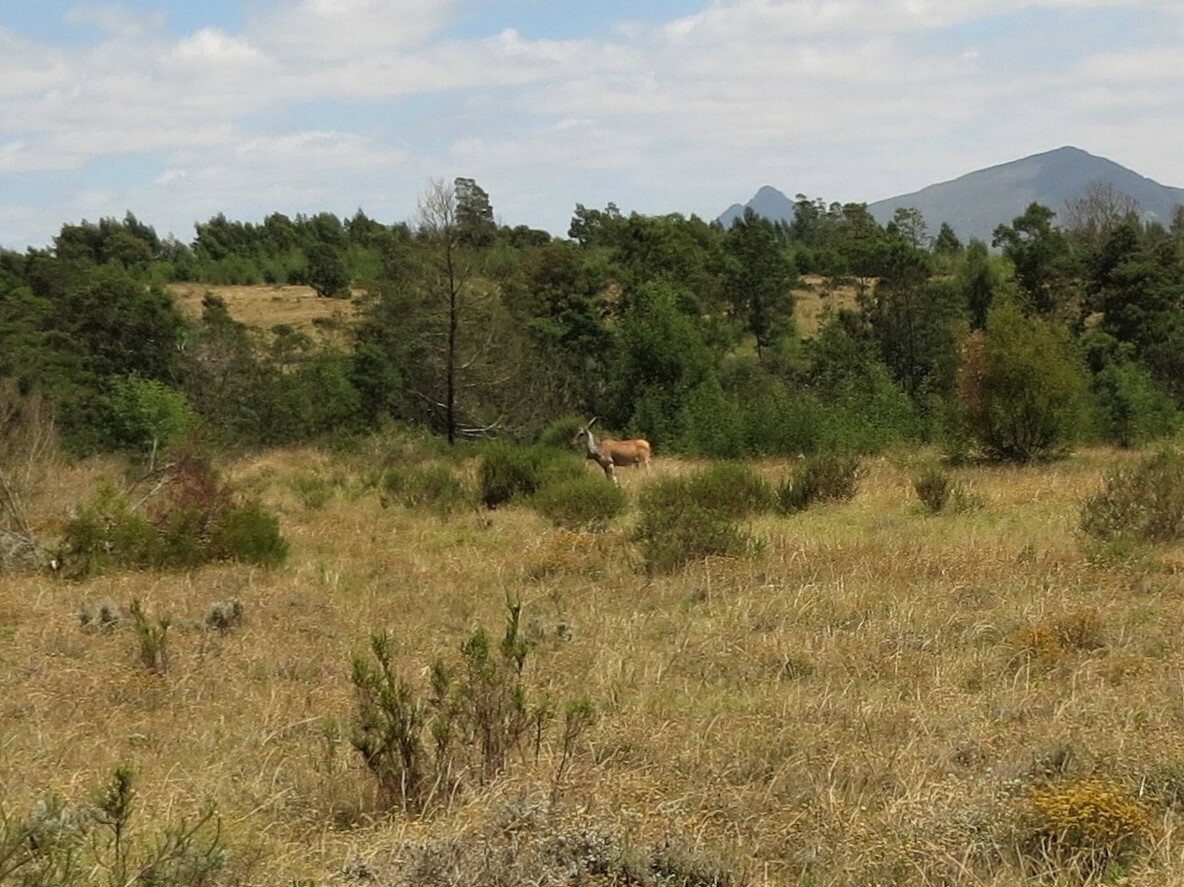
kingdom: Animalia
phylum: Chordata
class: Mammalia
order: Artiodactyla
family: Bovidae
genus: Taurotragus
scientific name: Taurotragus oryx
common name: Common eland
